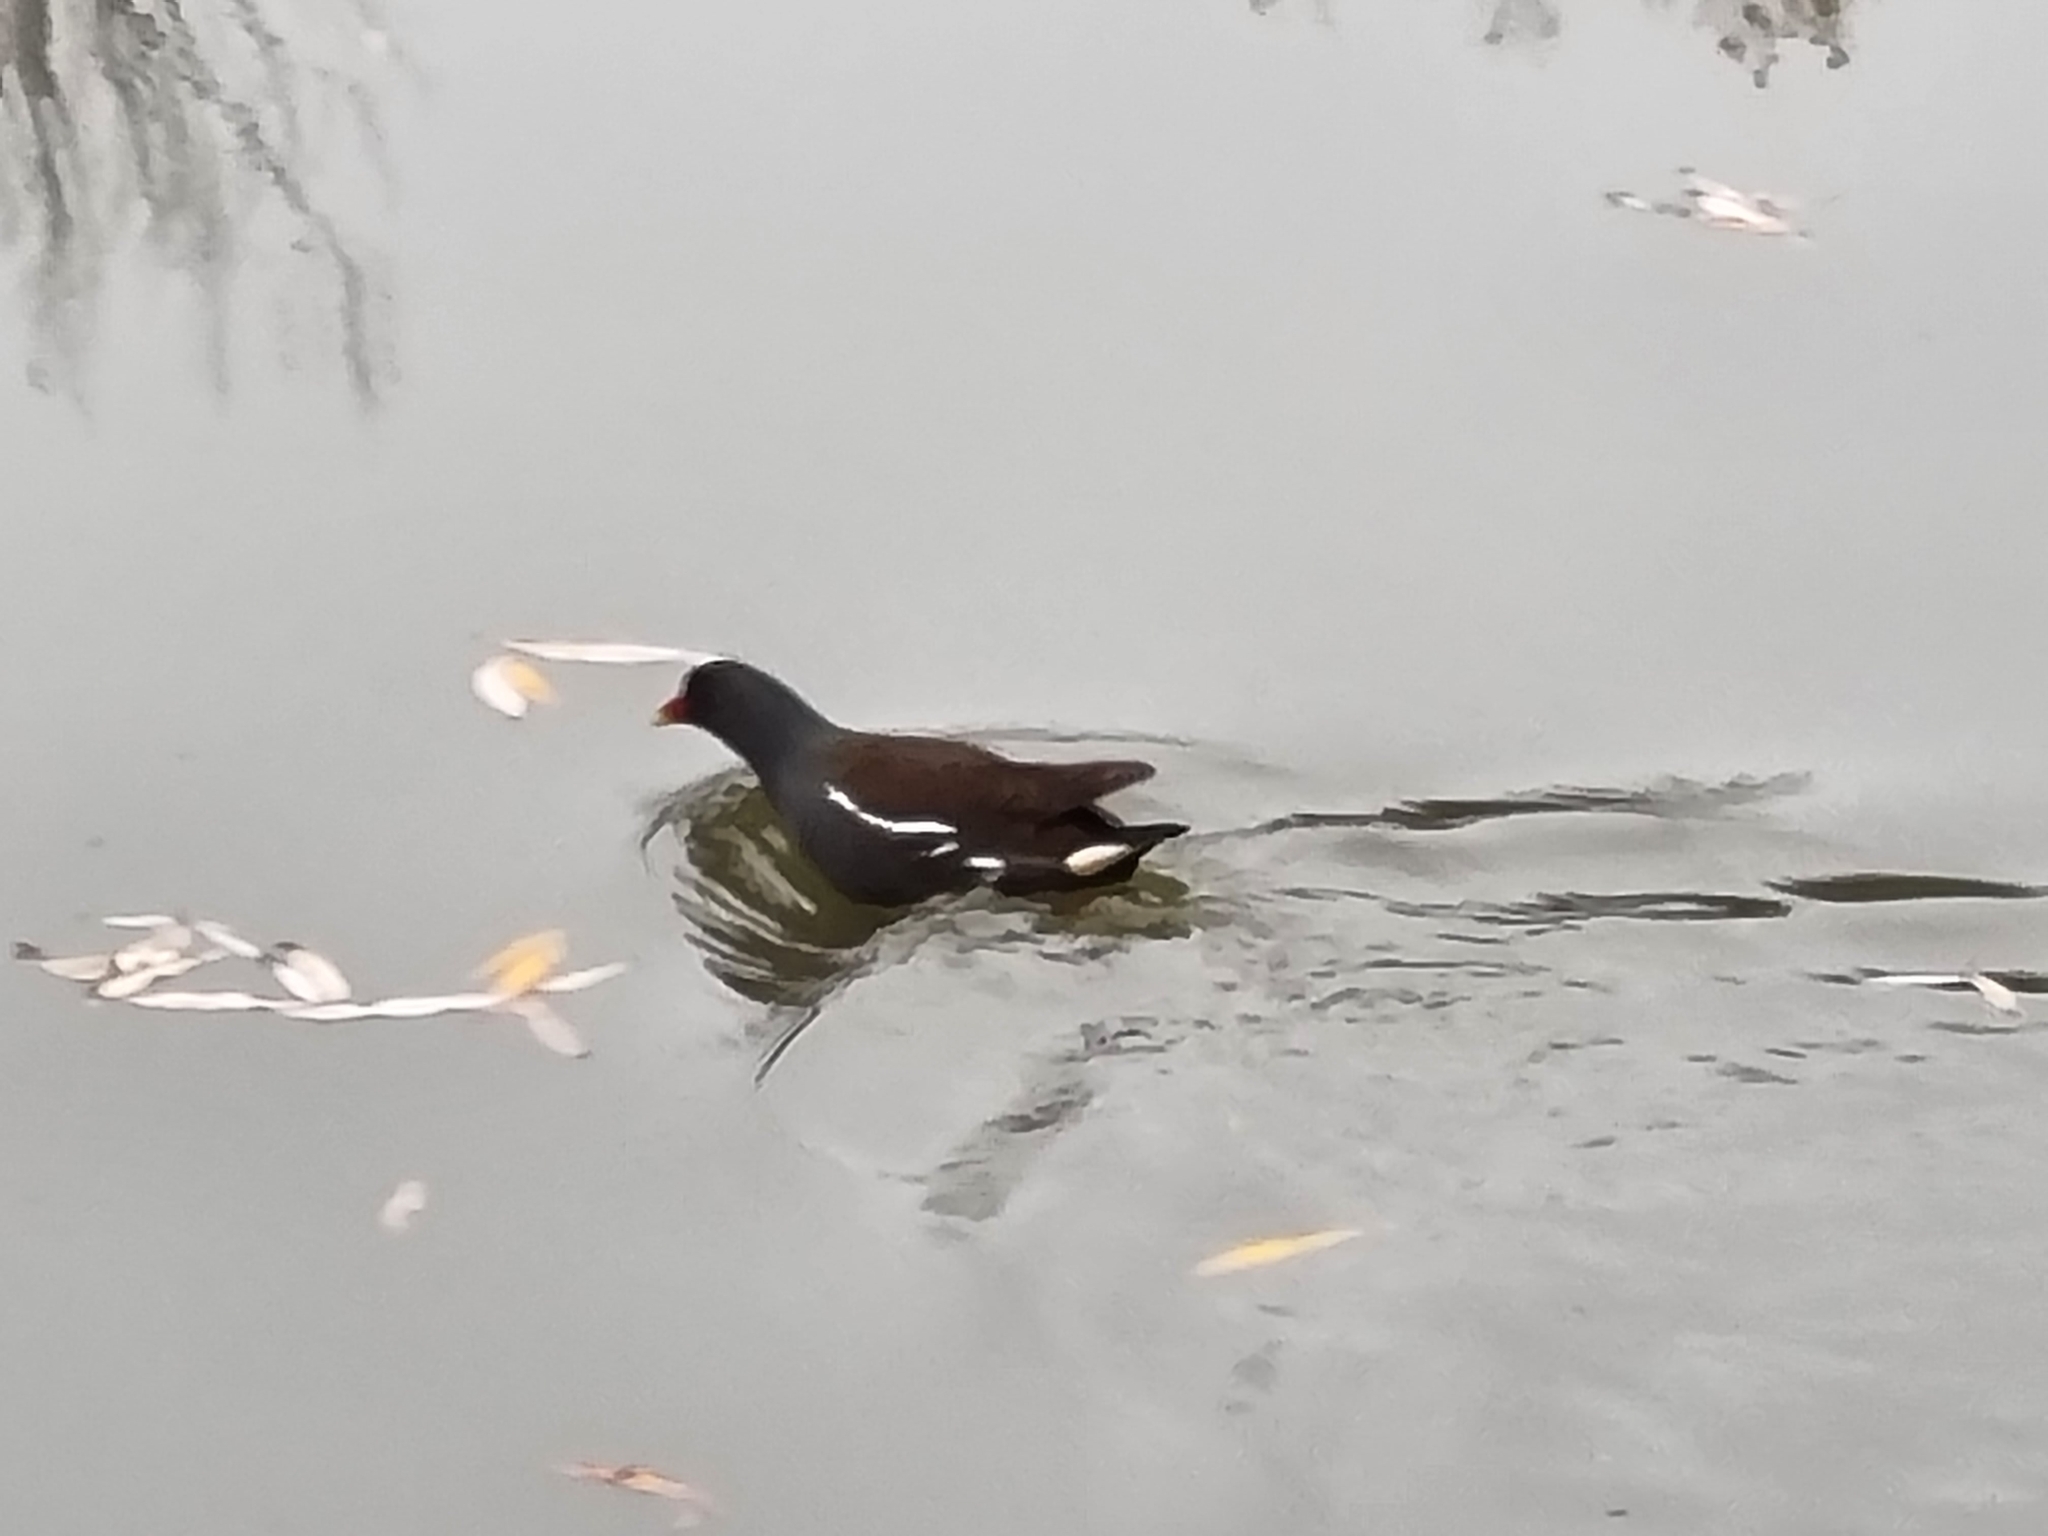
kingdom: Animalia
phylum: Chordata
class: Aves
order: Gruiformes
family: Rallidae
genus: Gallinula
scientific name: Gallinula chloropus
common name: Common moorhen
